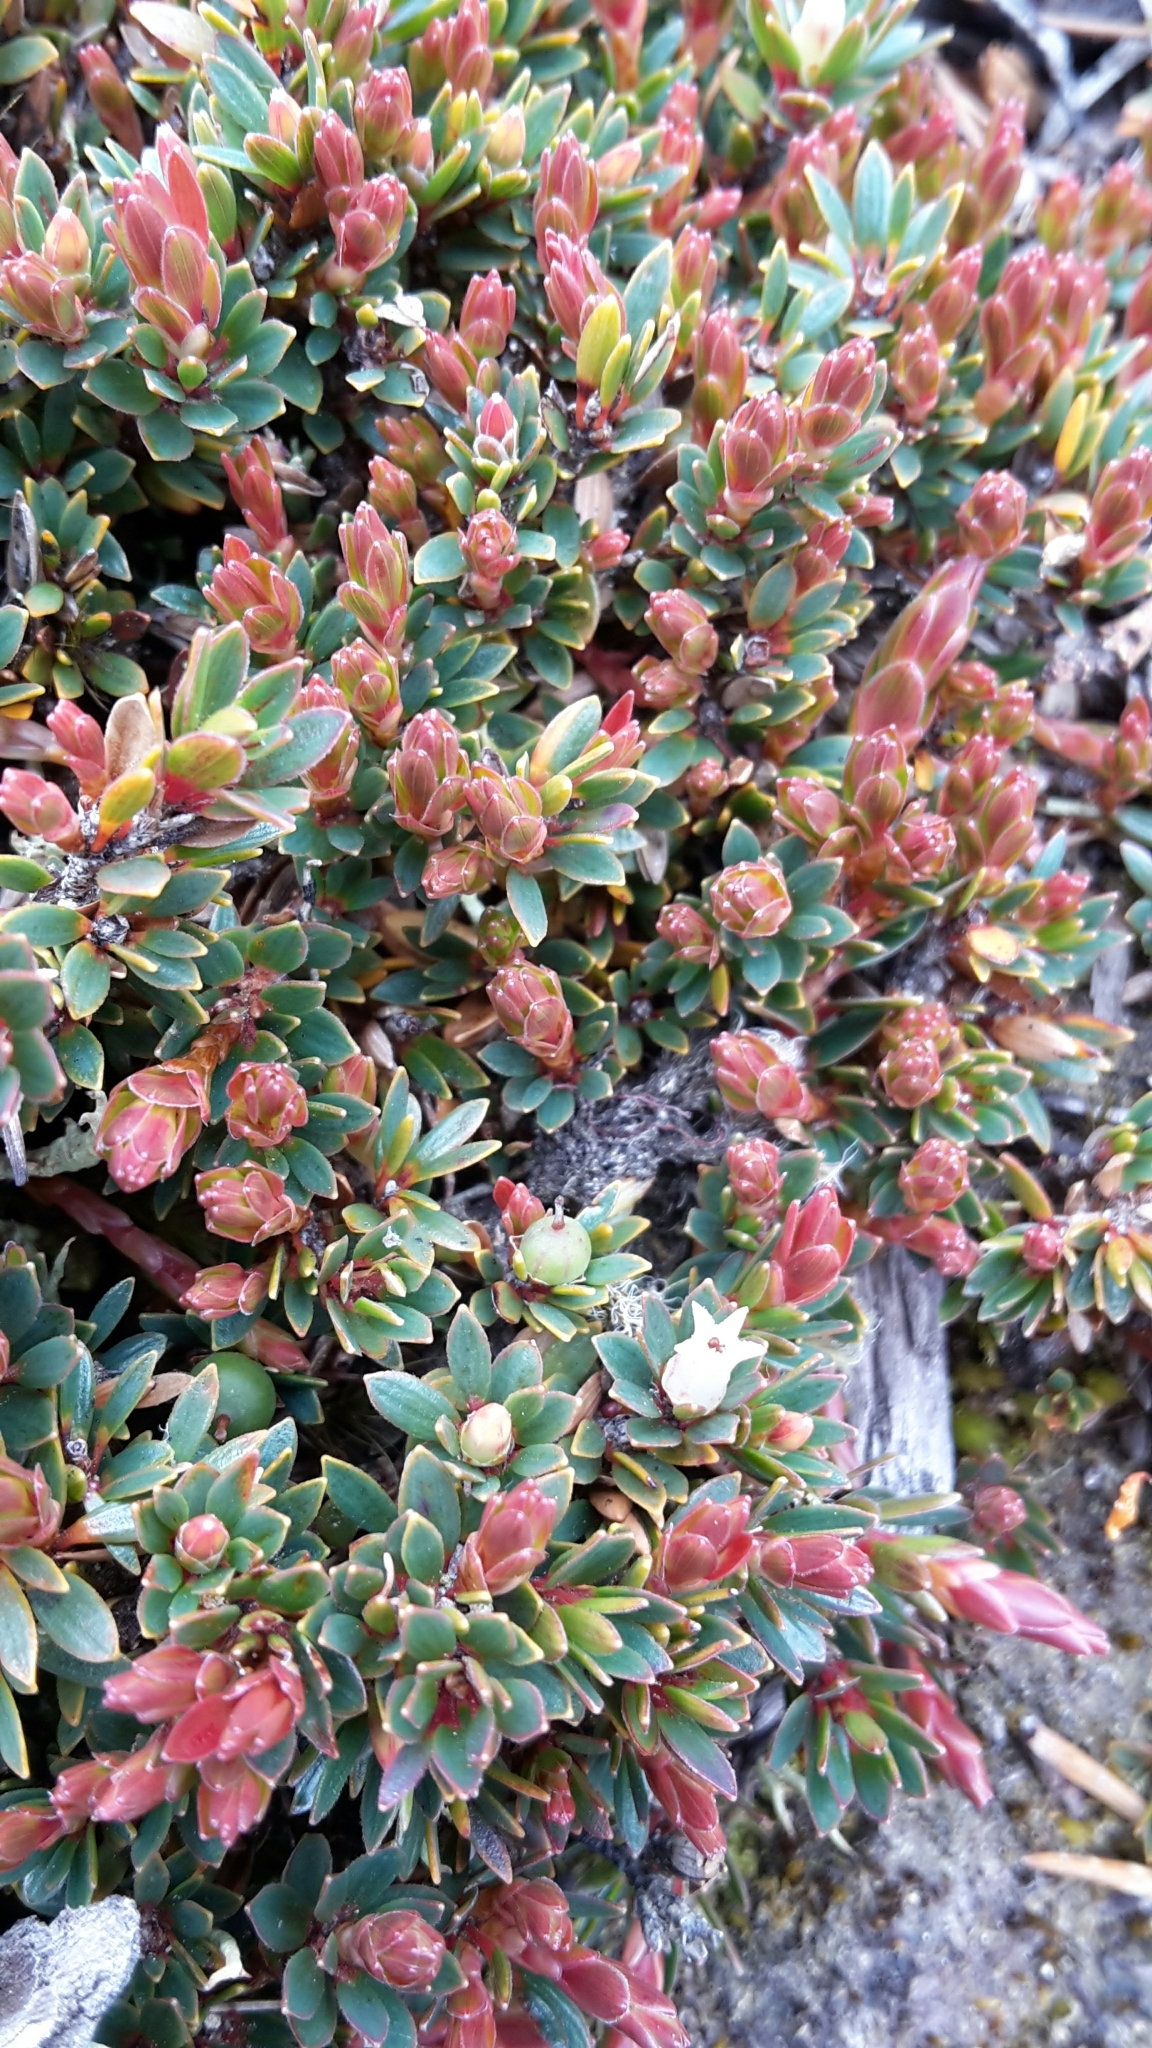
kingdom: Plantae
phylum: Tracheophyta
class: Magnoliopsida
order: Ericales
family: Ericaceae
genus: Pentachondra
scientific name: Pentachondra pumila
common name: Carpet-heath
